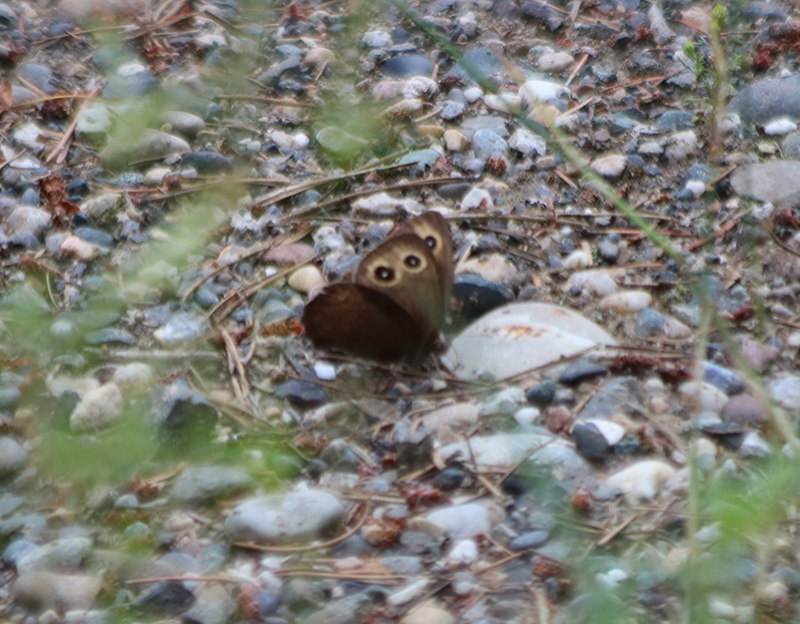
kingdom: Animalia
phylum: Arthropoda
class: Insecta
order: Lepidoptera
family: Nymphalidae
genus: Cercyonis
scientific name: Cercyonis pegala
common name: Common wood-nymph
